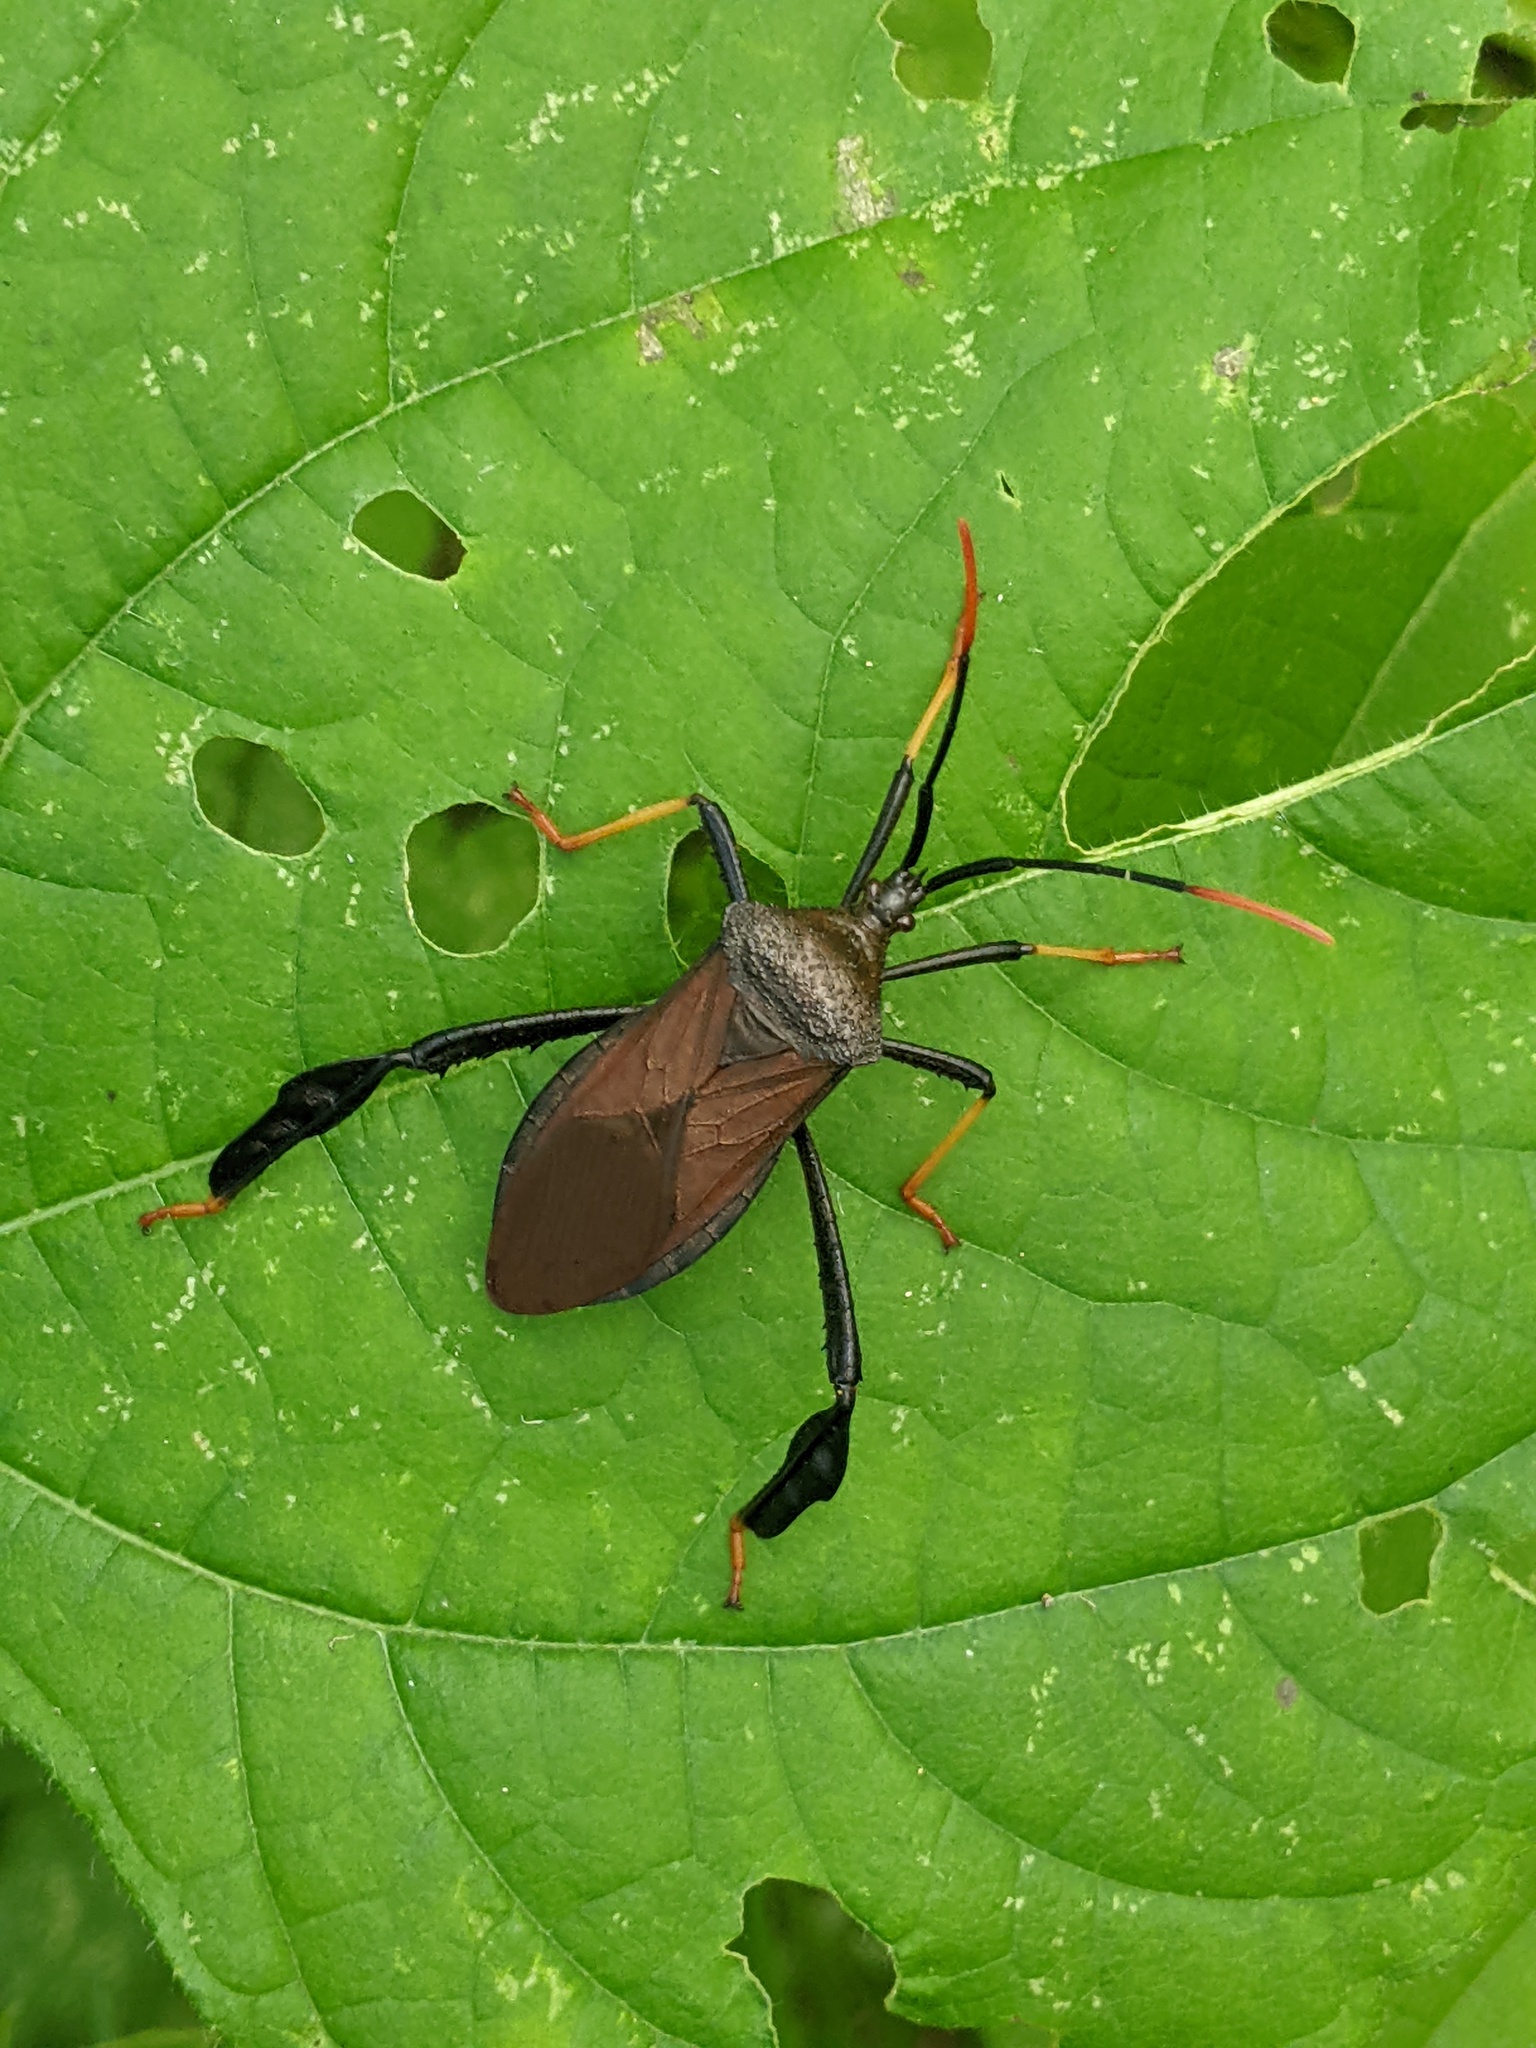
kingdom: Animalia
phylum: Arthropoda
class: Insecta
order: Hemiptera
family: Coreidae
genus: Acanthocephala
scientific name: Acanthocephala thomasi
